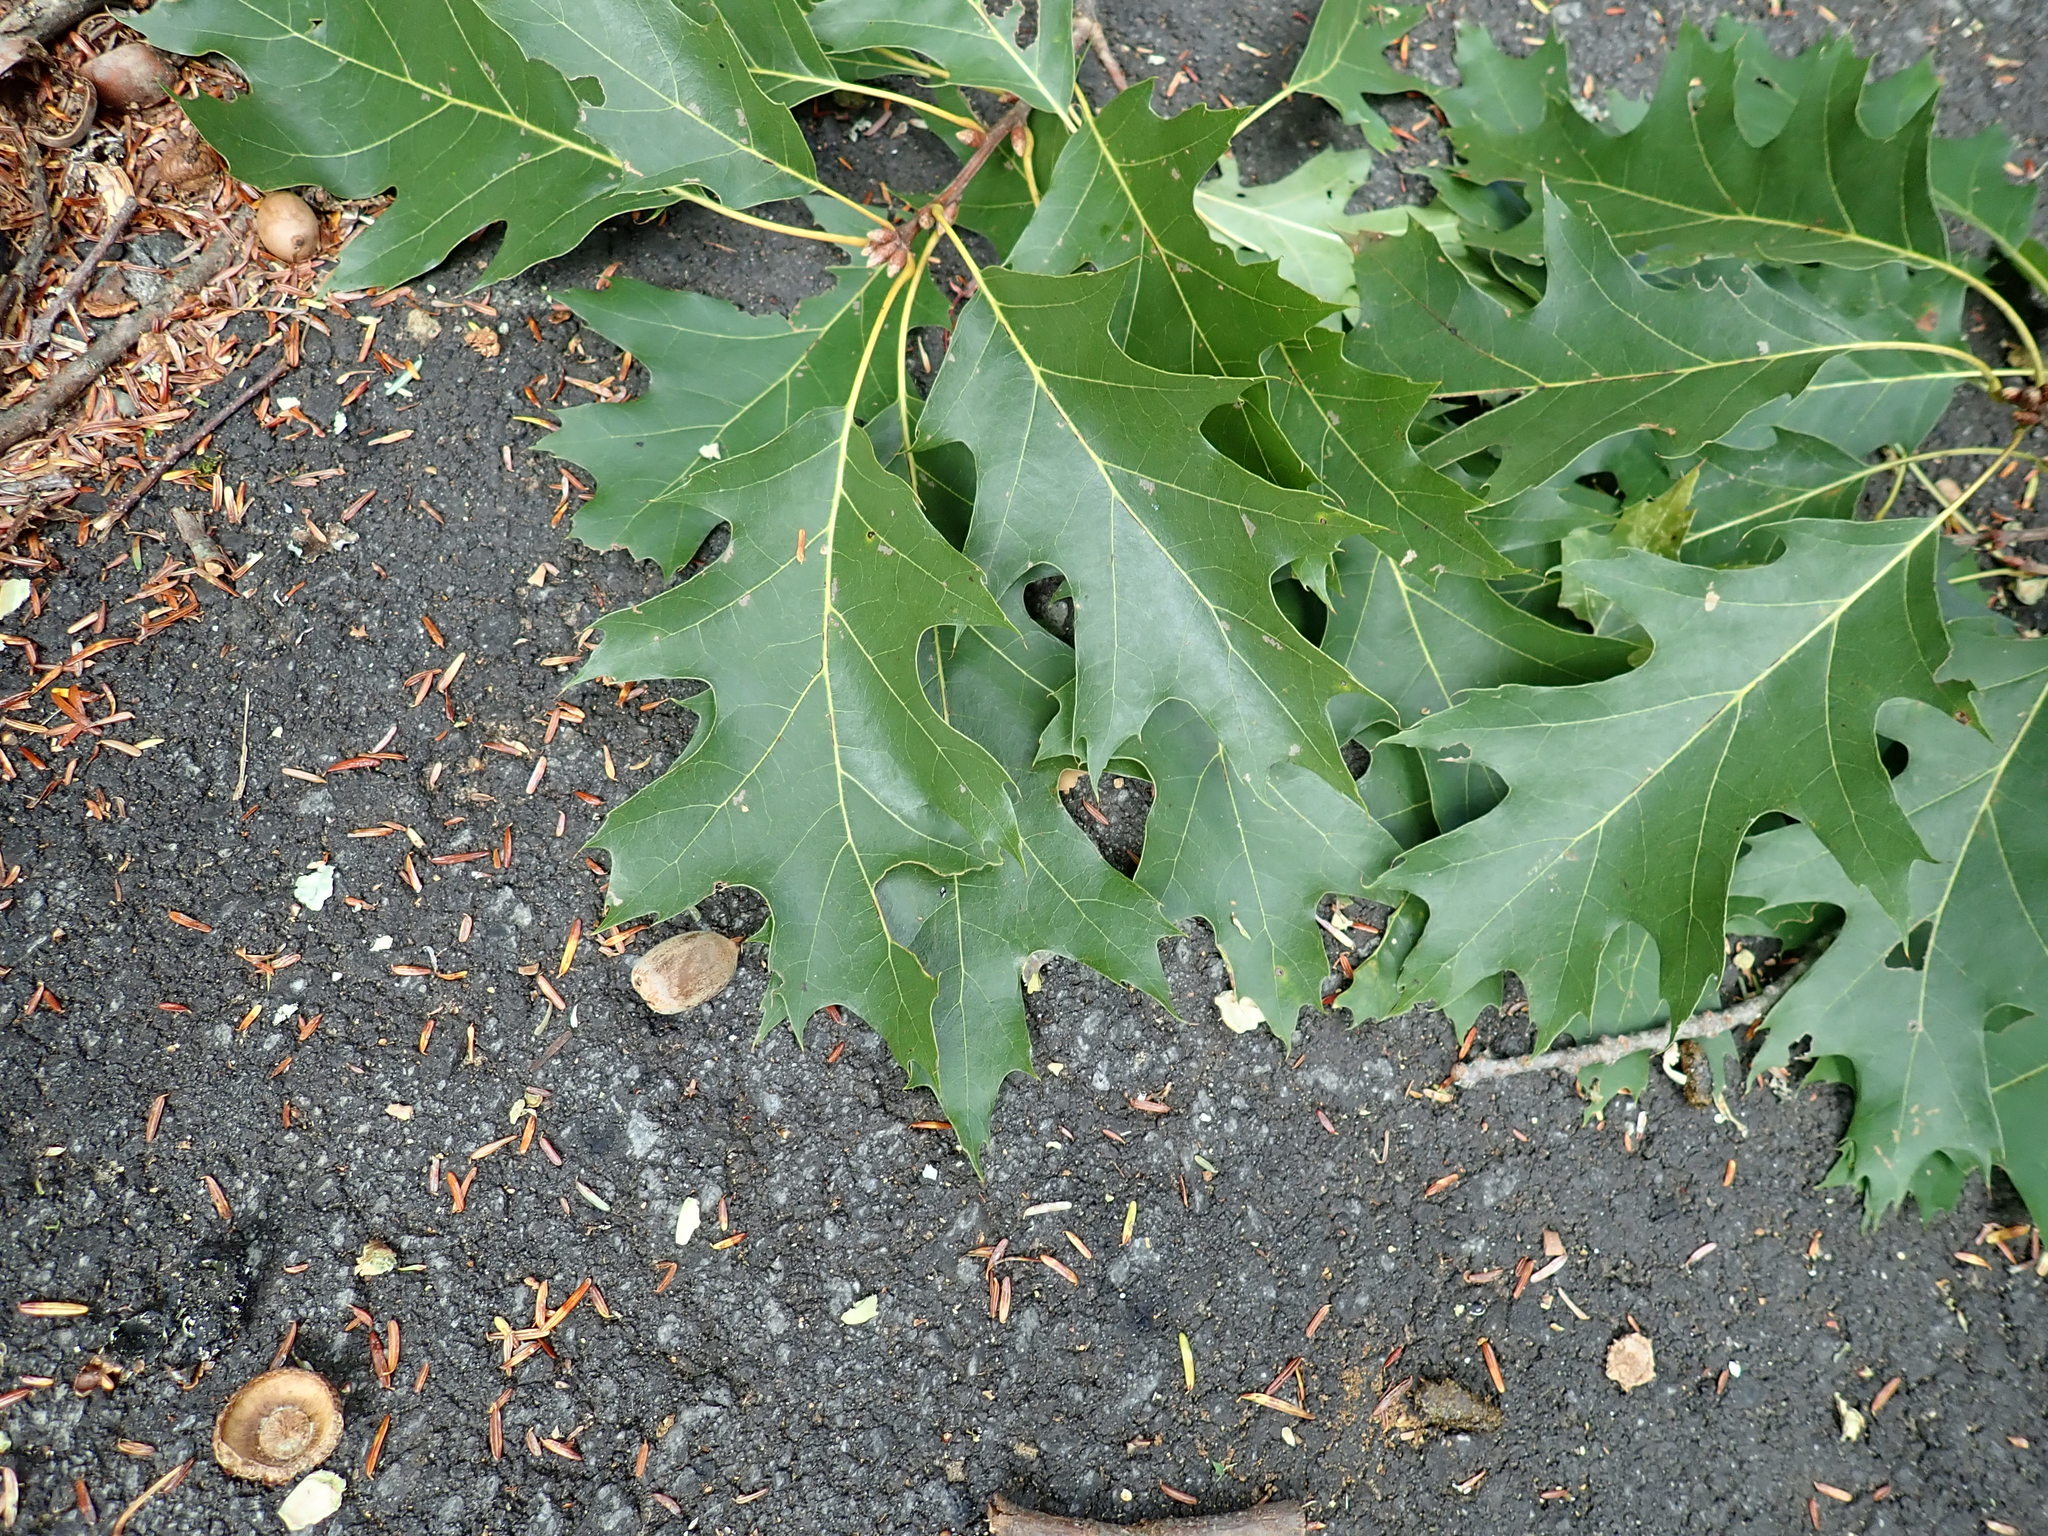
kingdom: Plantae
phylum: Tracheophyta
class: Magnoliopsida
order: Fagales
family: Fagaceae
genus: Quercus
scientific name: Quercus rubra
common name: Red oak
